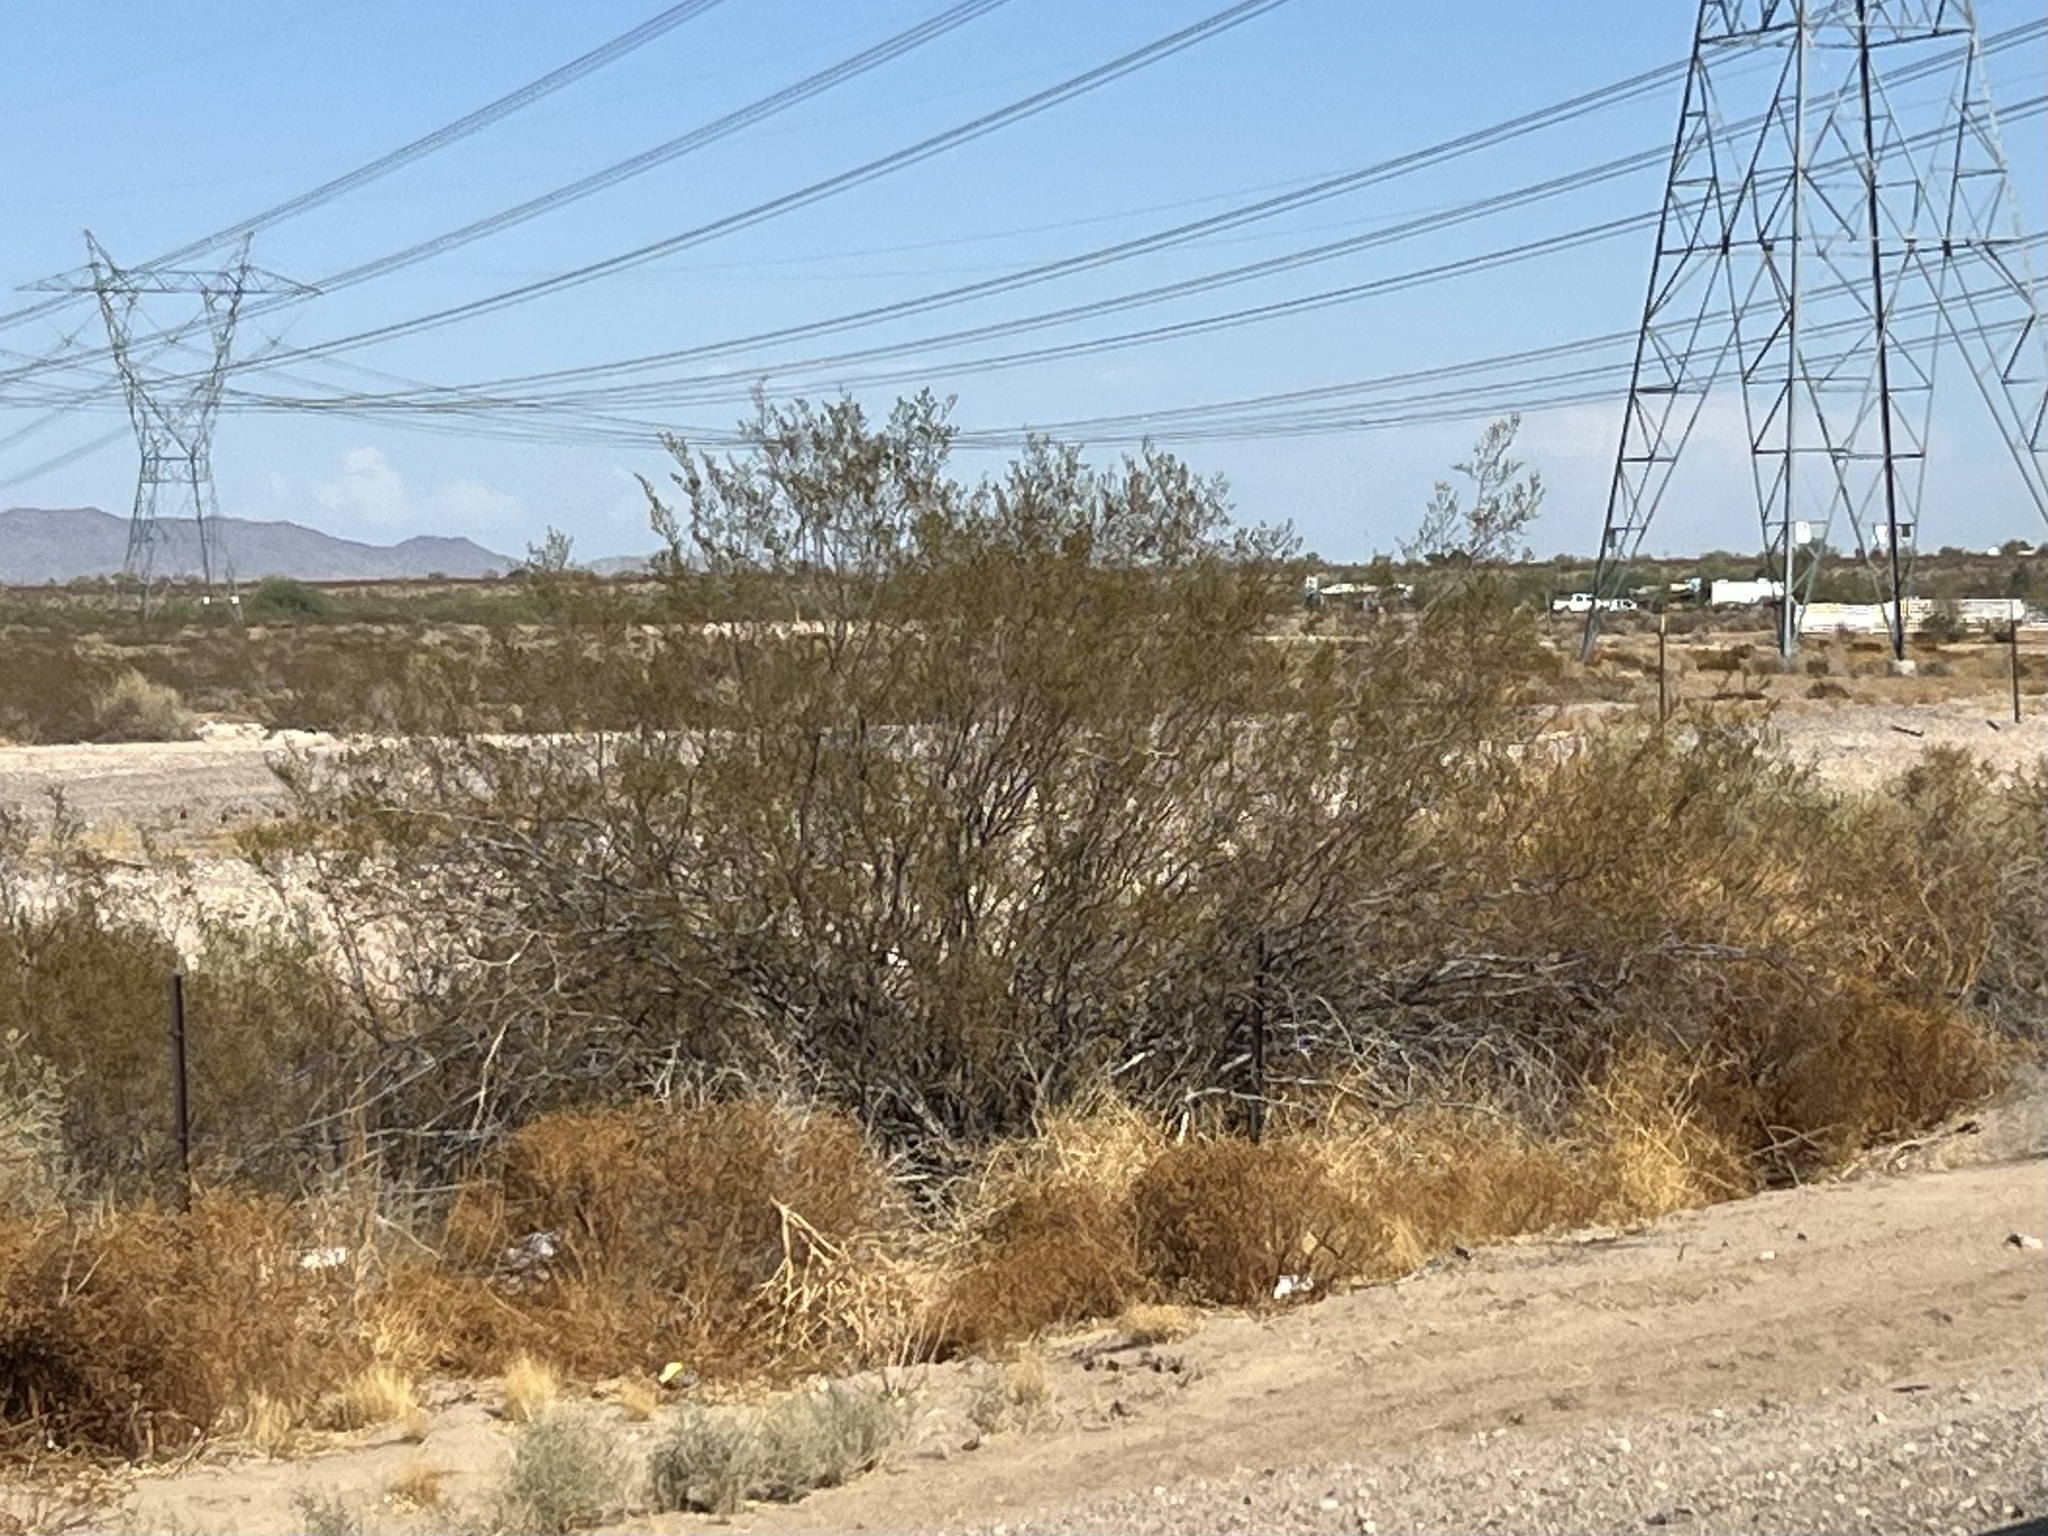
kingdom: Plantae
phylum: Tracheophyta
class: Magnoliopsida
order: Zygophyllales
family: Zygophyllaceae
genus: Larrea
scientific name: Larrea tridentata
